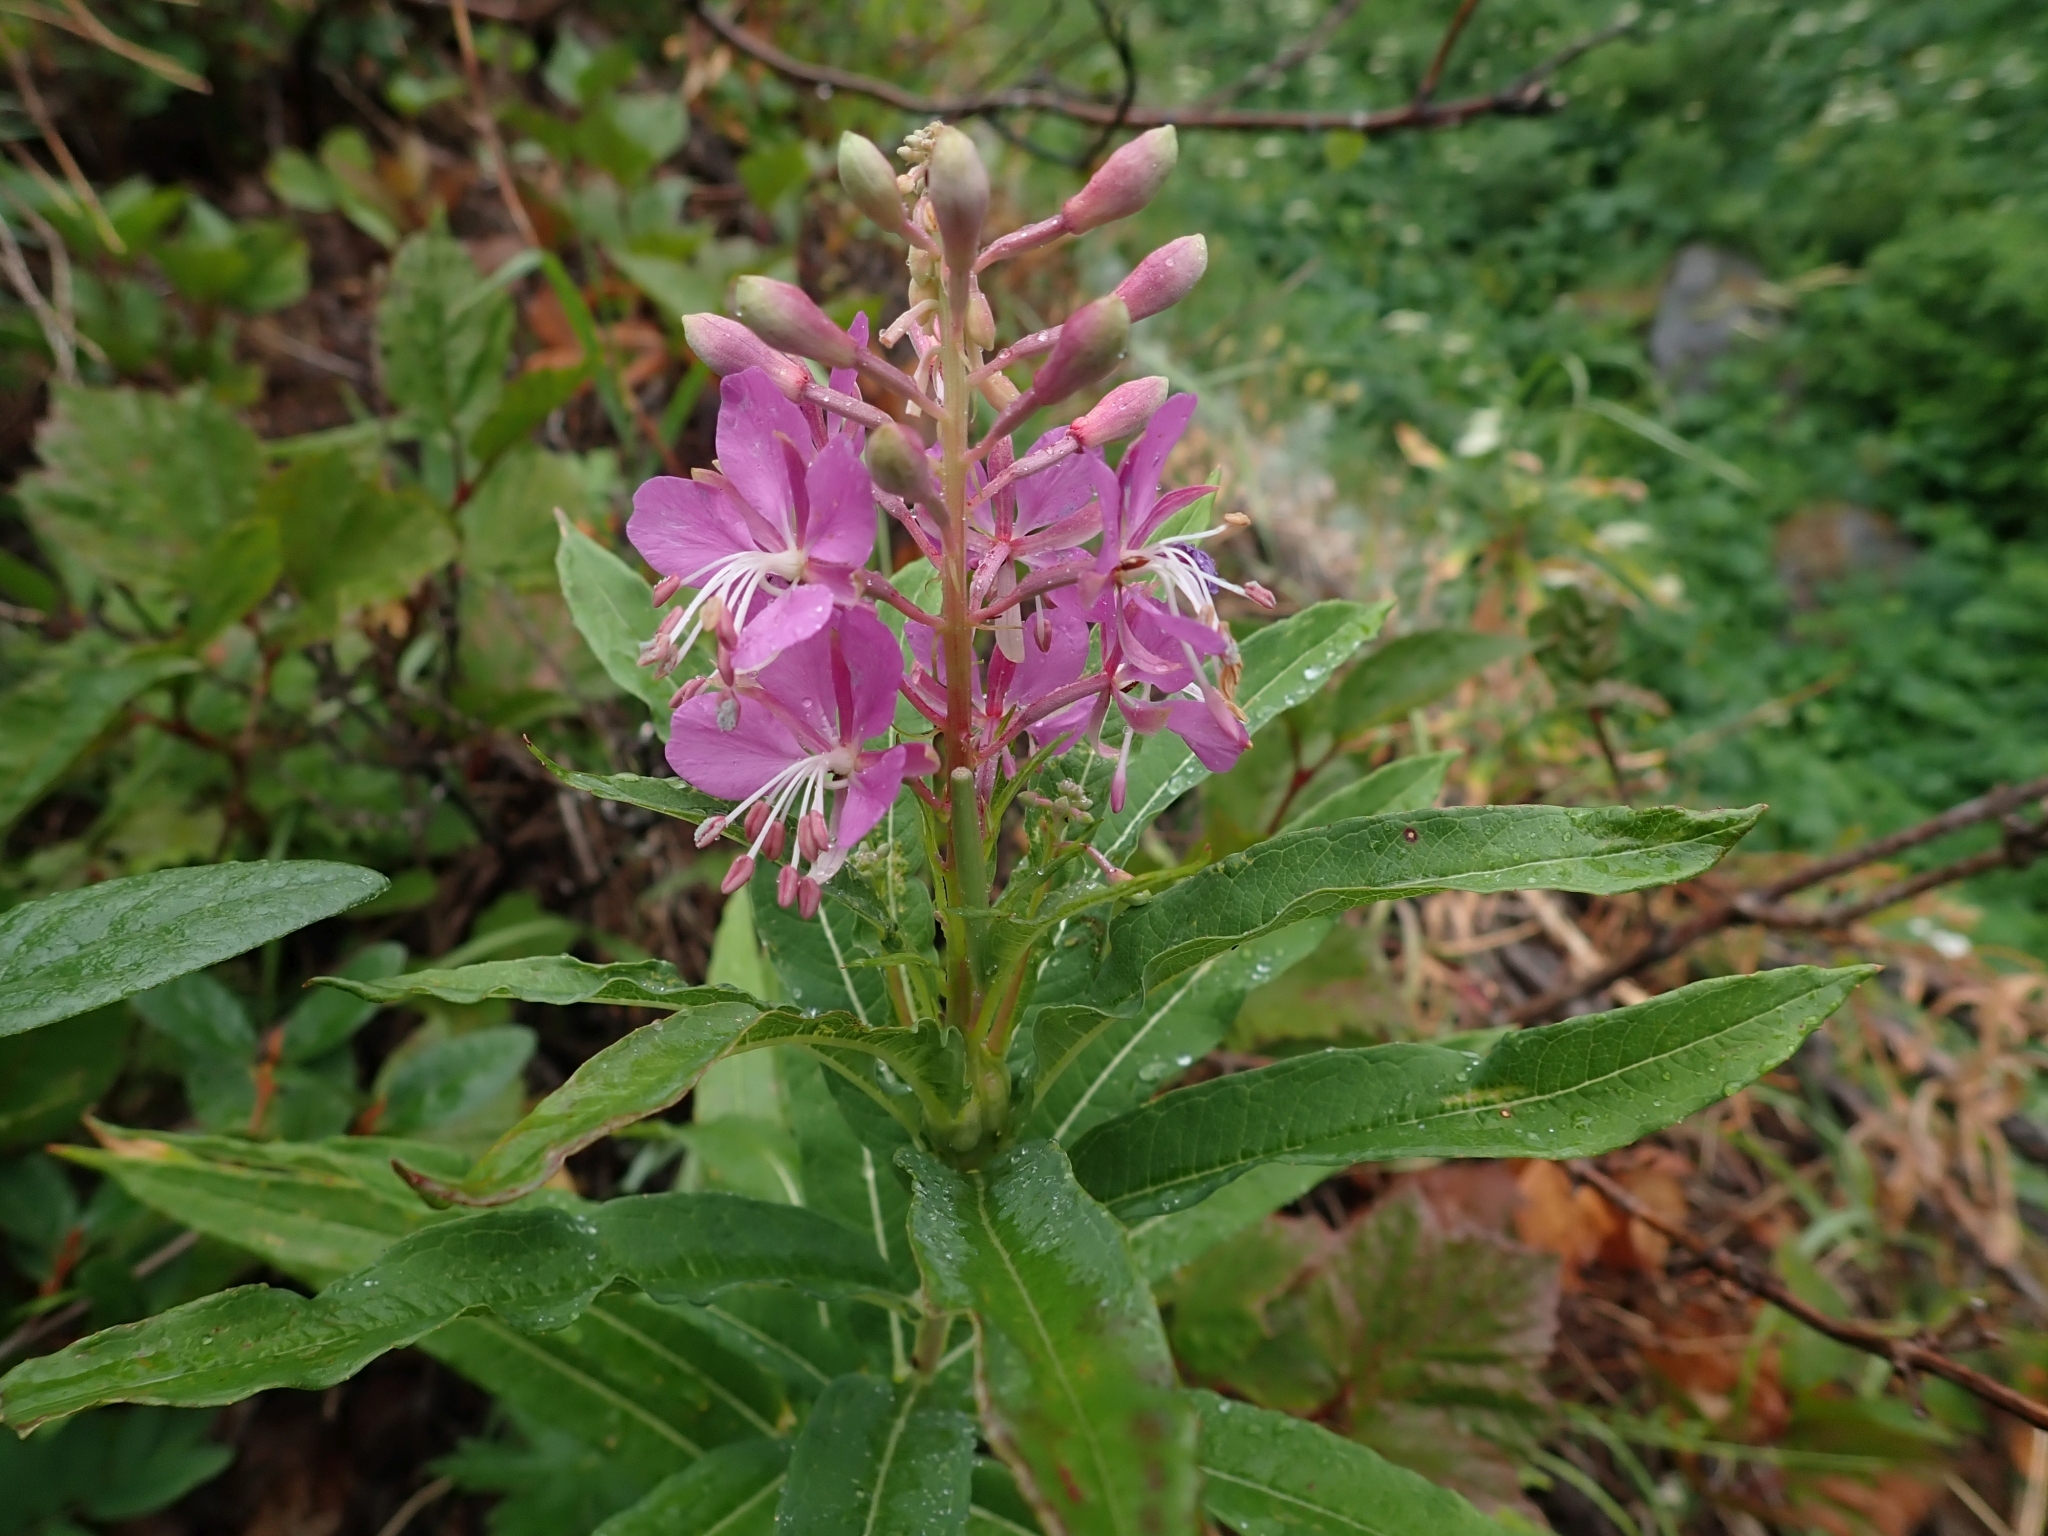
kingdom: Plantae
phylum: Tracheophyta
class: Magnoliopsida
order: Myrtales
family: Onagraceae
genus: Chamaenerion
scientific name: Chamaenerion angustifolium
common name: Fireweed
